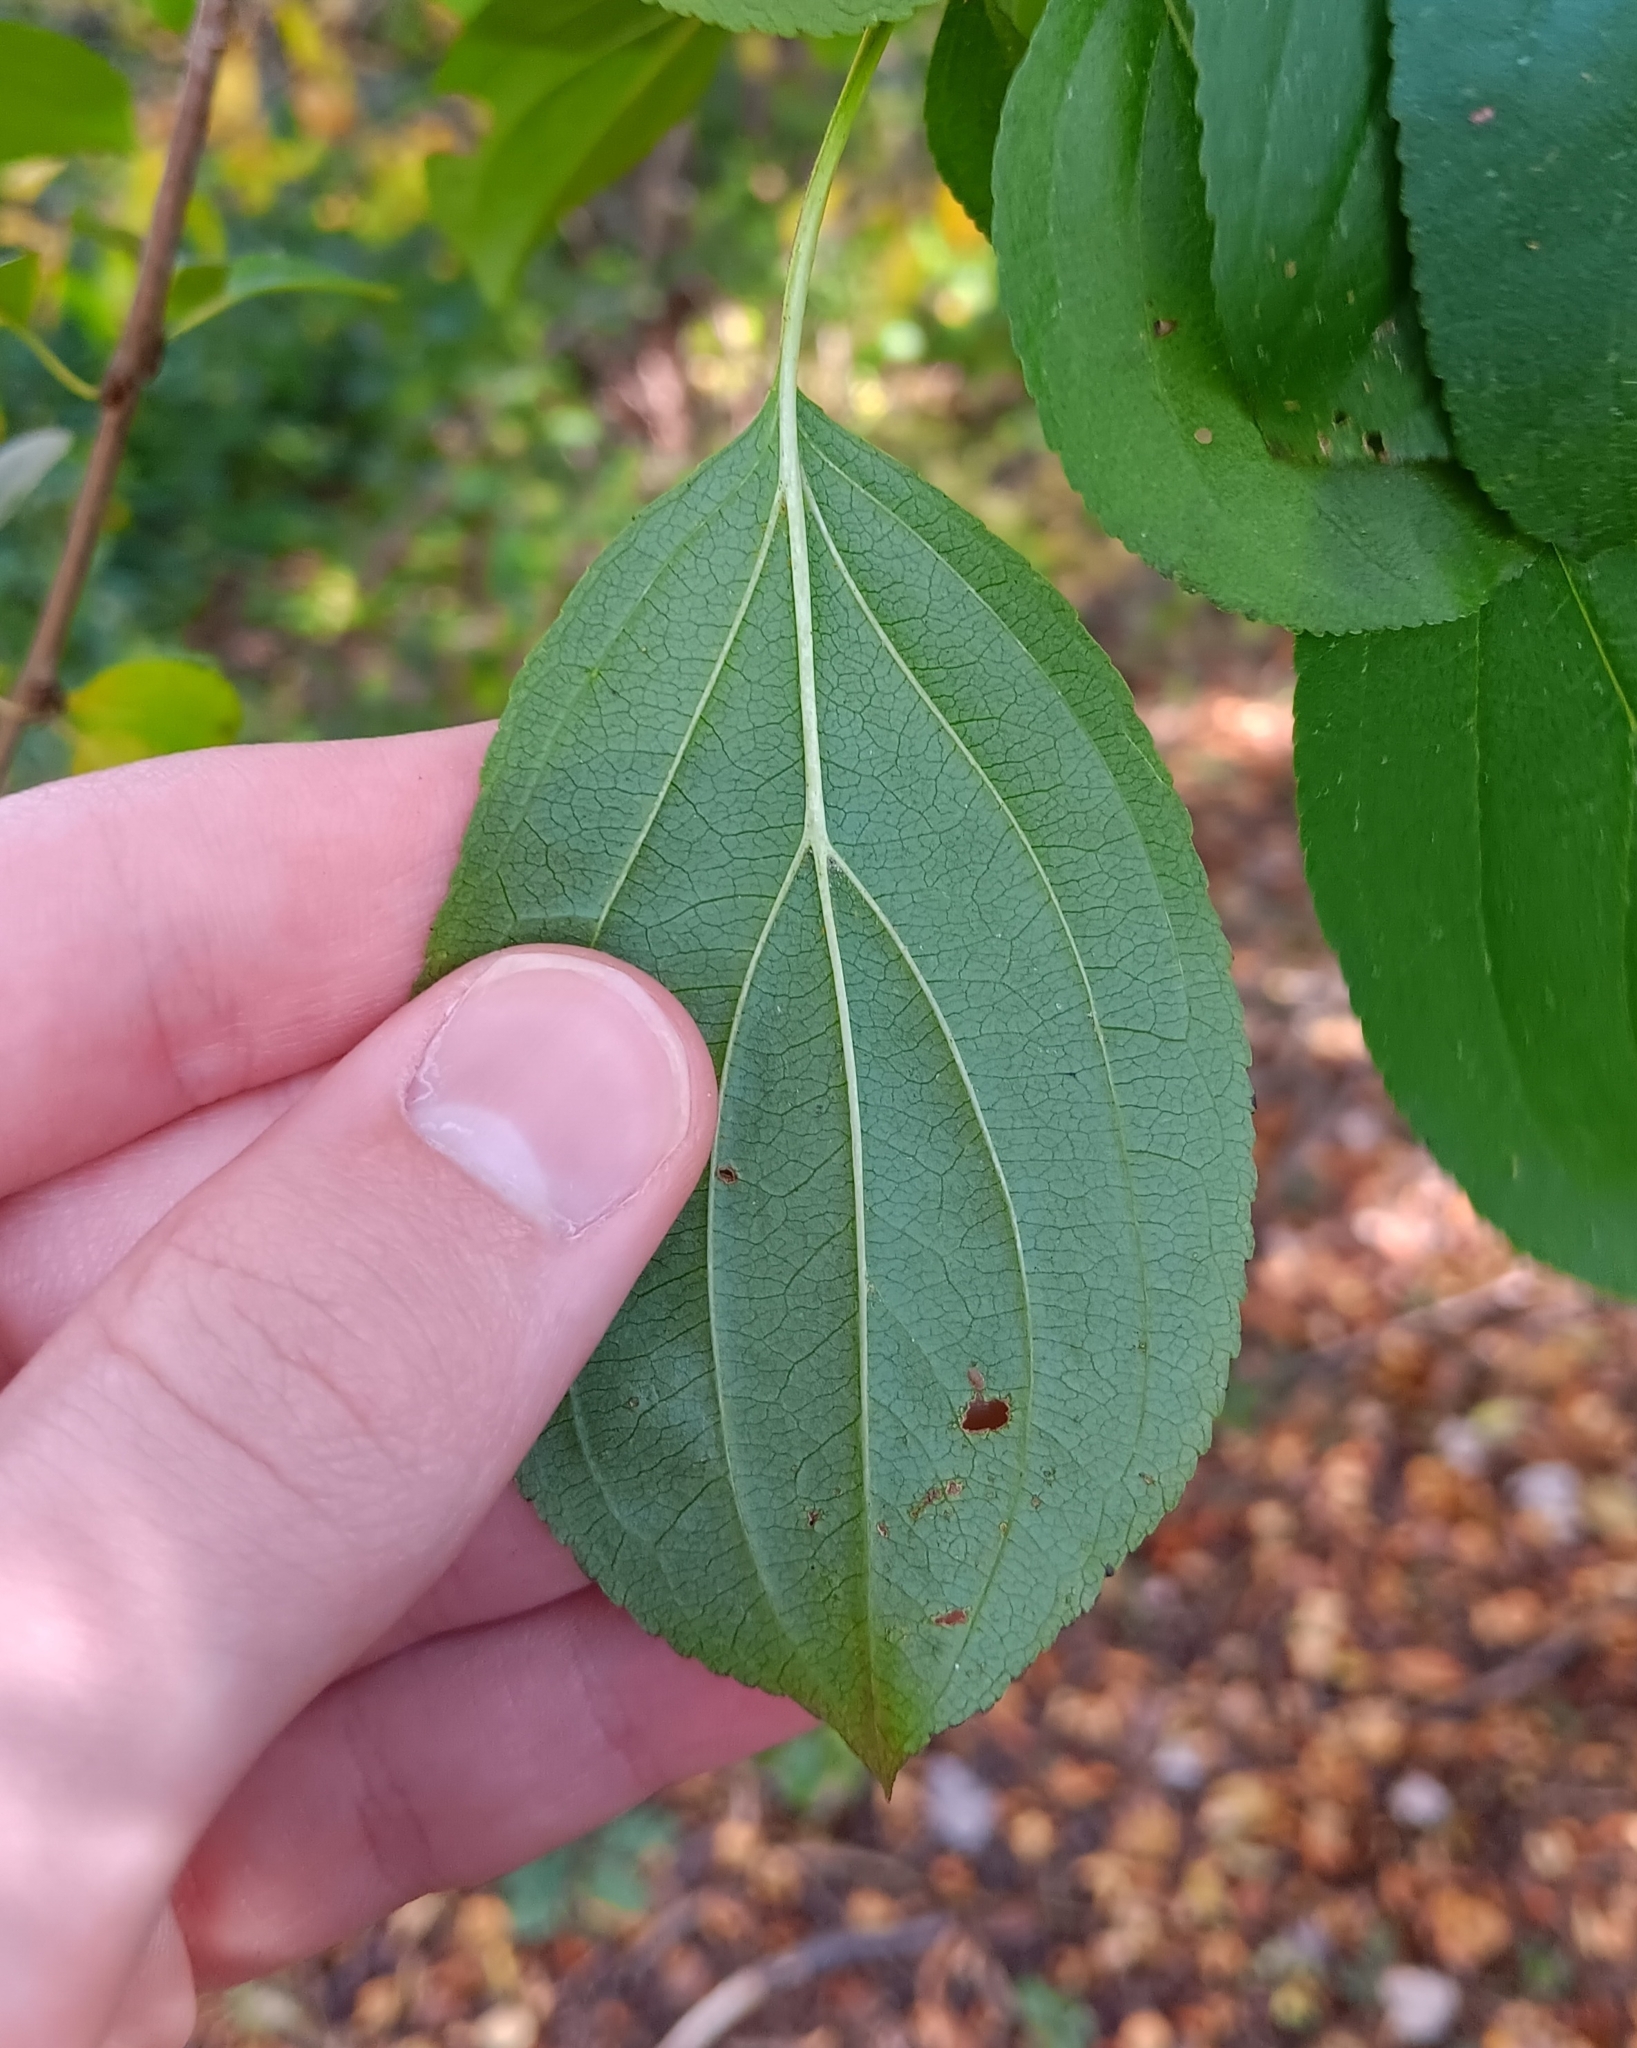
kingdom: Plantae
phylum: Tracheophyta
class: Magnoliopsida
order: Rosales
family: Rhamnaceae
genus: Rhamnus
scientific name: Rhamnus cathartica
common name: Common buckthorn
